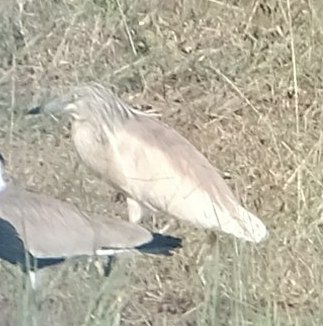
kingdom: Animalia
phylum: Chordata
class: Aves
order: Pelecaniformes
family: Ardeidae
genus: Ardeola
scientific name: Ardeola ralloides
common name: Squacco heron
